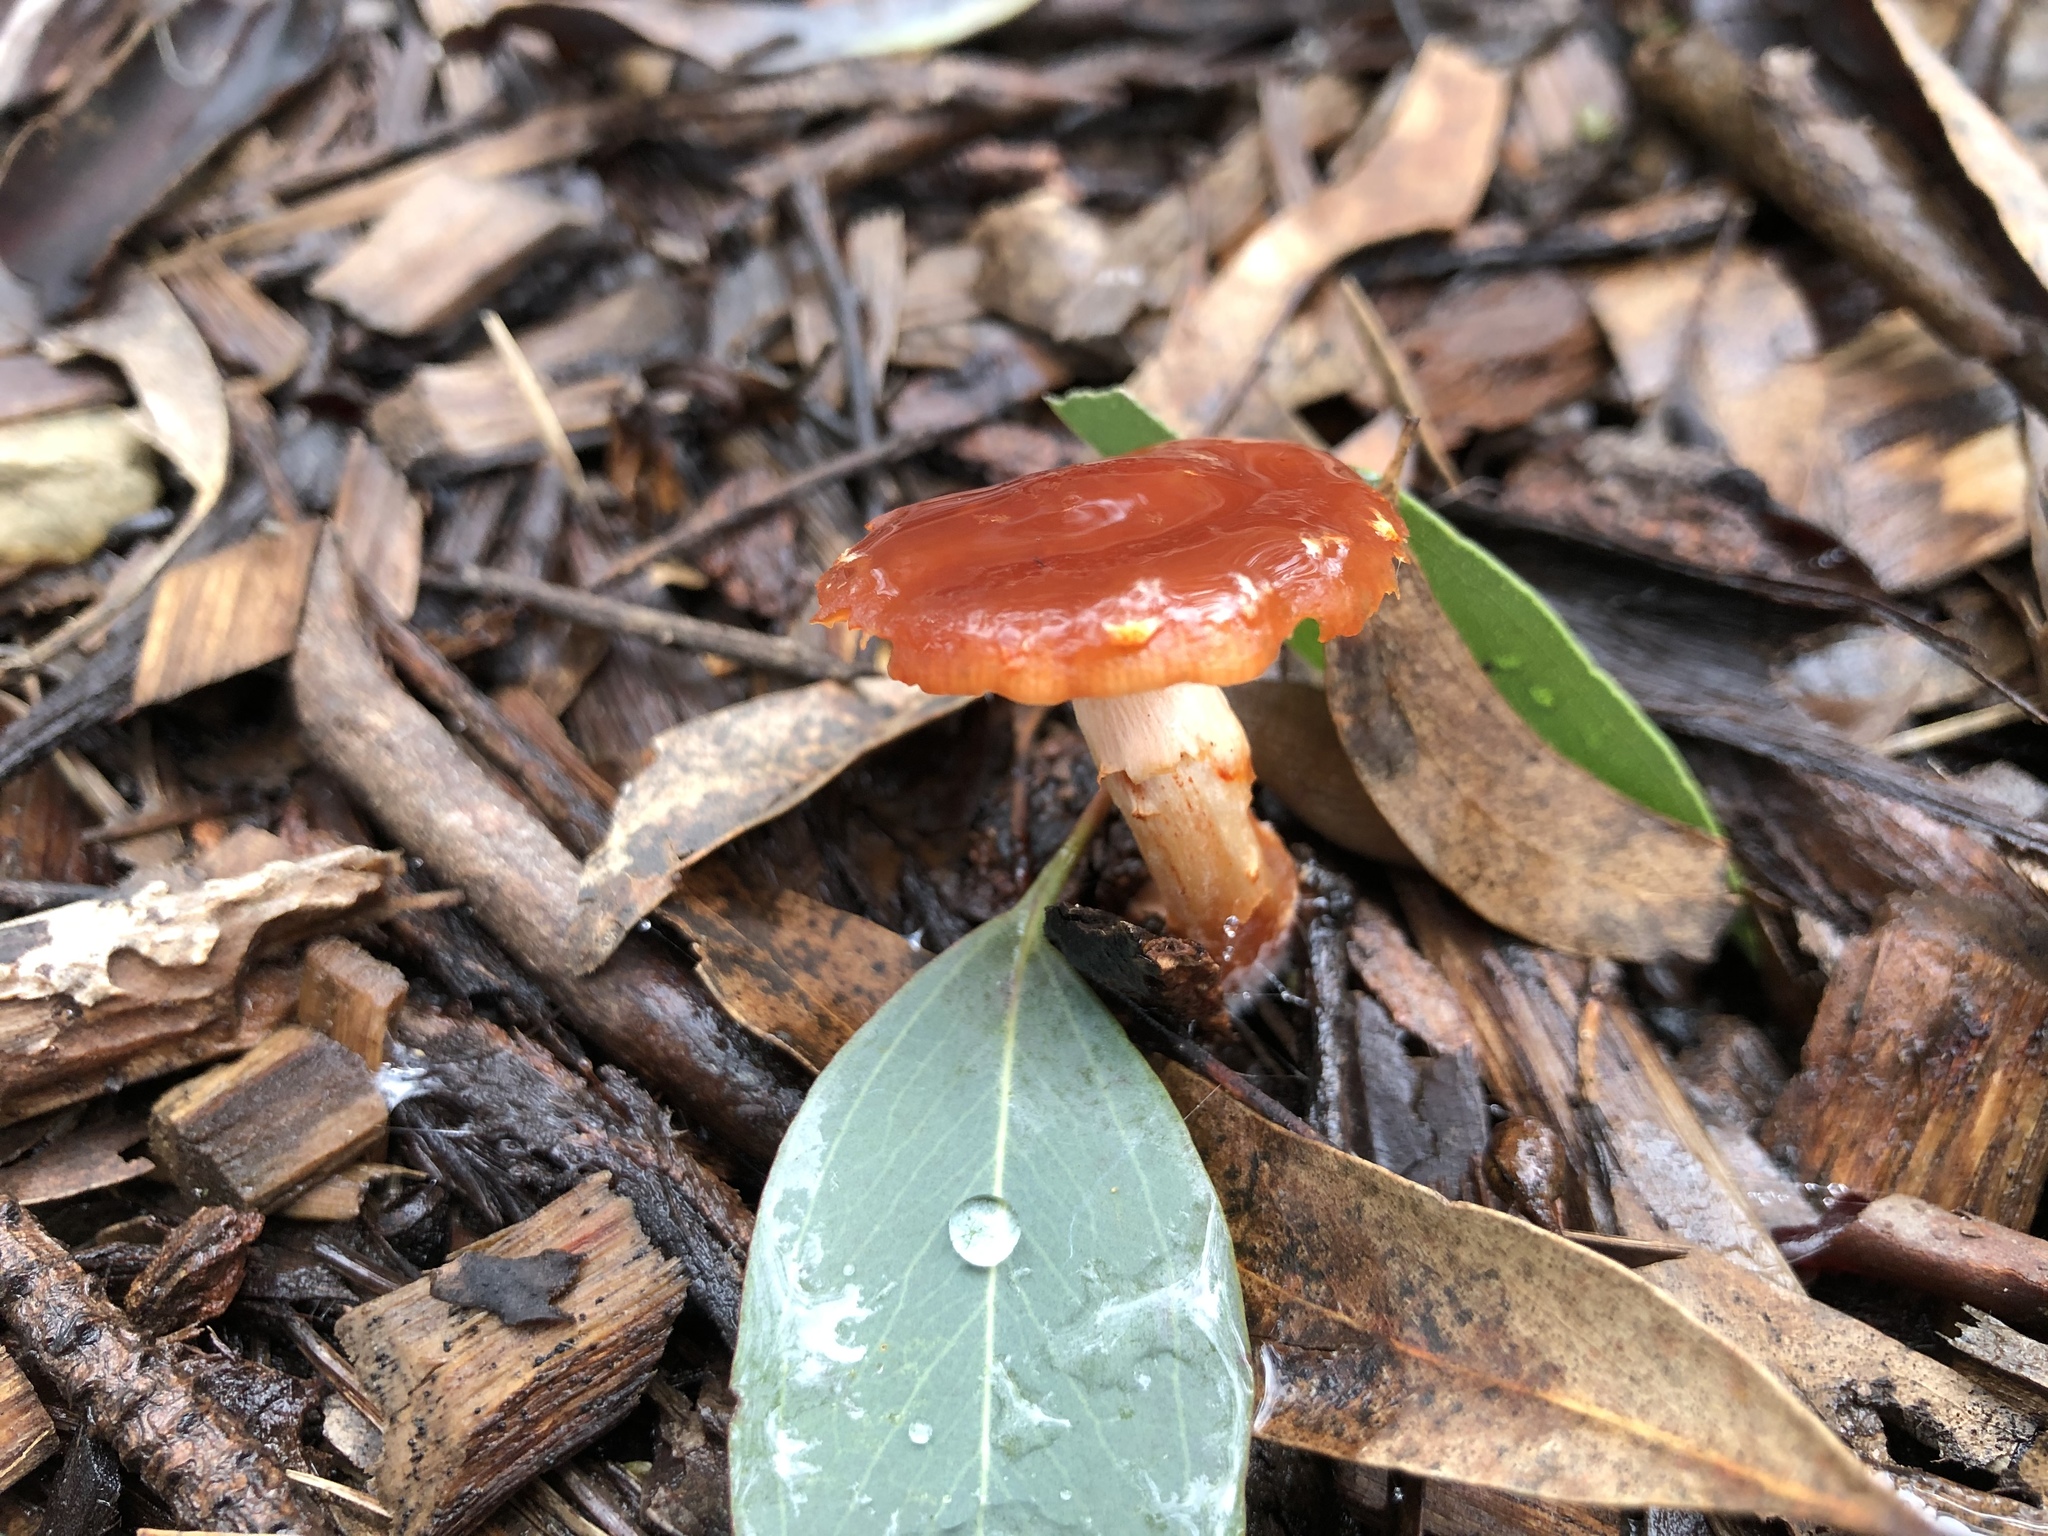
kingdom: Fungi
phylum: Basidiomycota
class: Agaricomycetes
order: Agaricales
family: Strophariaceae
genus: Leratiomyces
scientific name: Leratiomyces ceres
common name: Redlead roundhead
